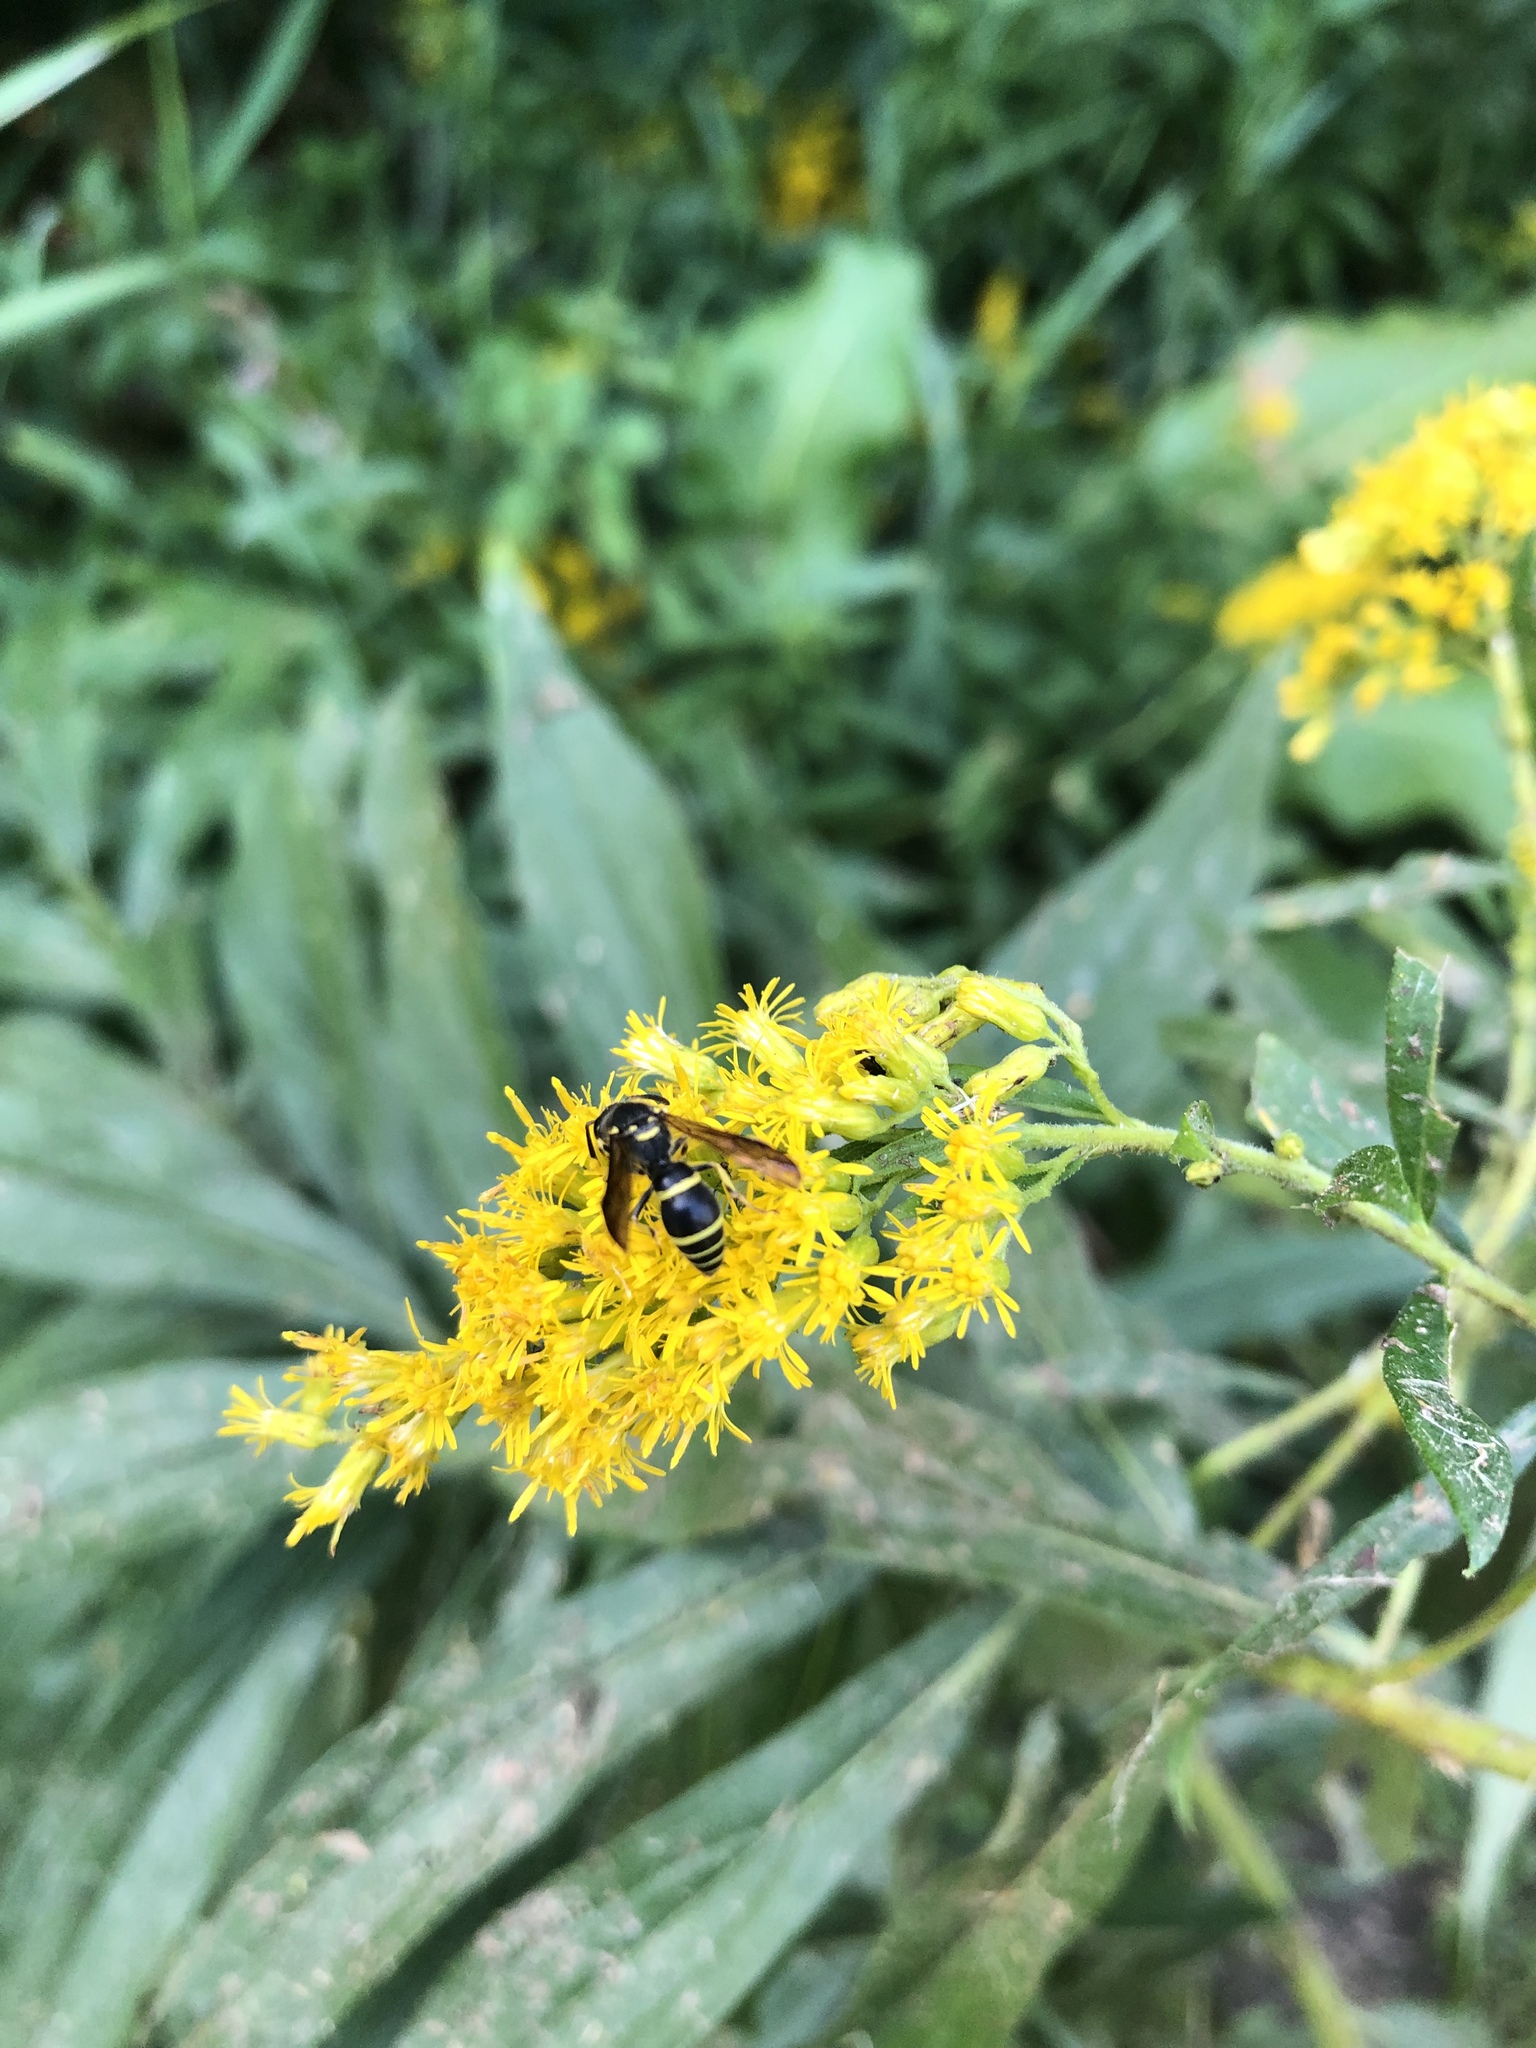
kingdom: Animalia
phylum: Arthropoda
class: Insecta
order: Hymenoptera
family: Vespidae
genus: Ancistrocerus
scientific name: Ancistrocerus adiabatus
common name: Bramble mason wasp
